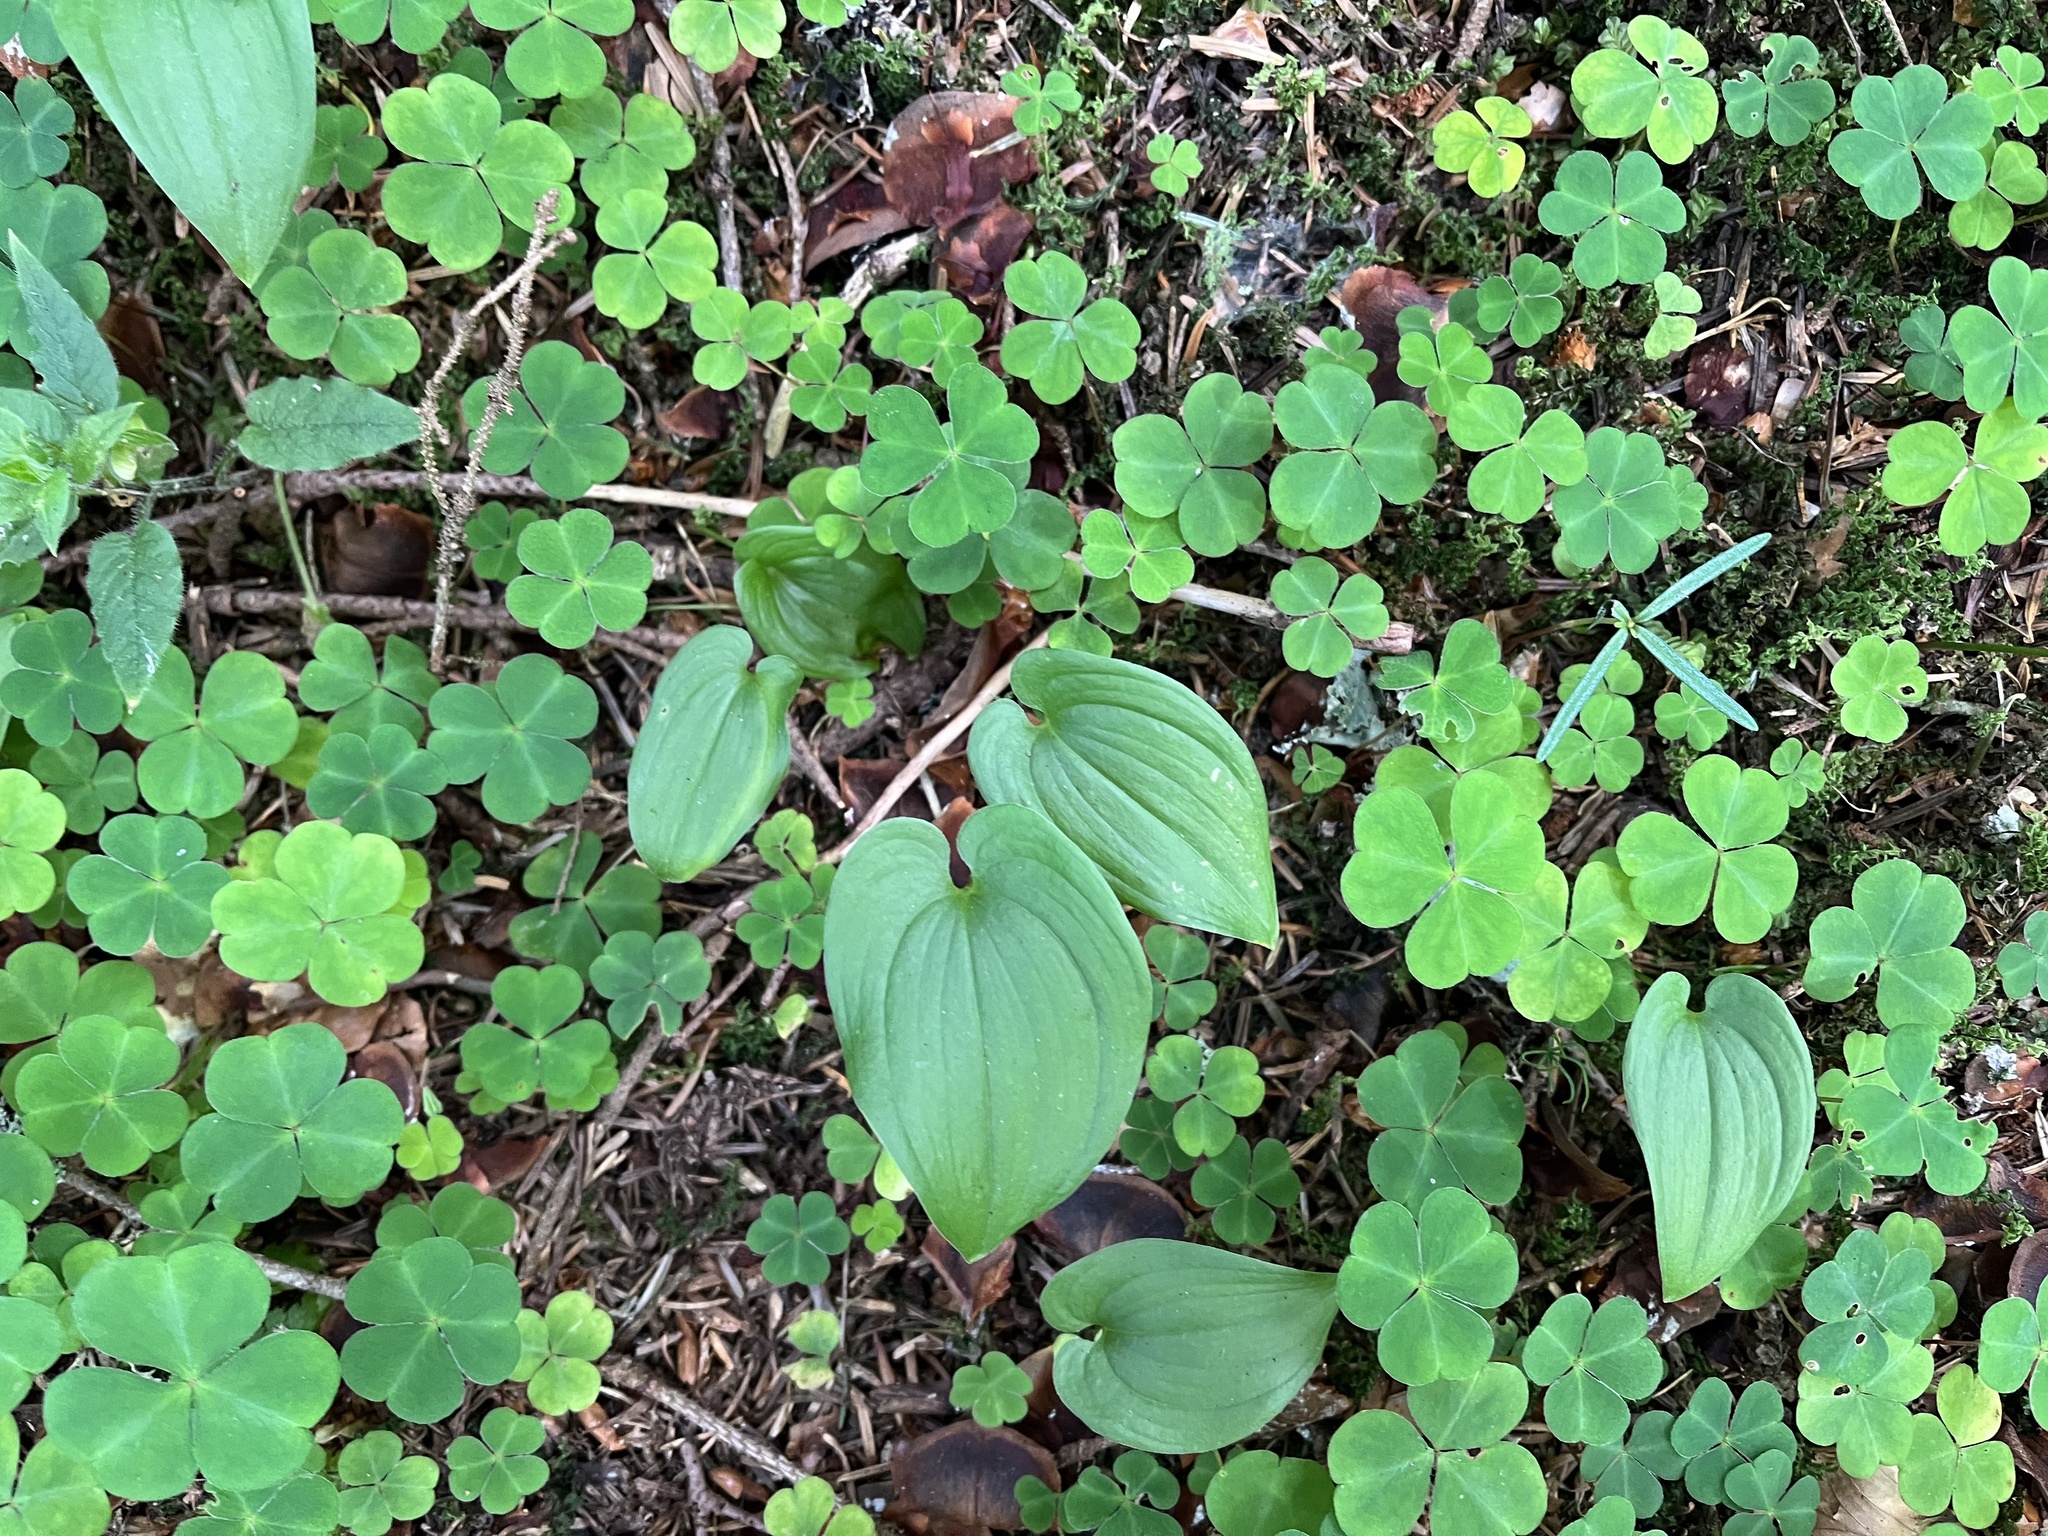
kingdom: Plantae
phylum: Tracheophyta
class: Liliopsida
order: Asparagales
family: Asparagaceae
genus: Maianthemum
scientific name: Maianthemum bifolium
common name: May lily
